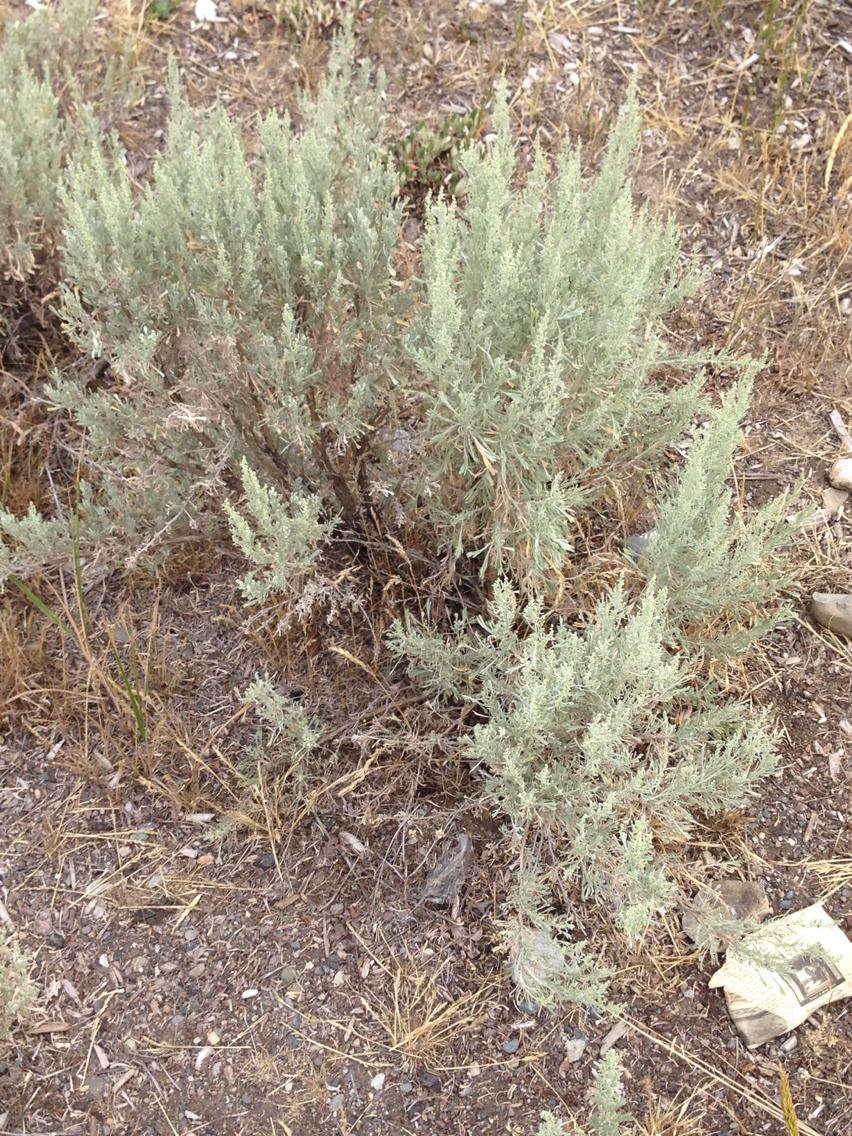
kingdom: Plantae
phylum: Tracheophyta
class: Magnoliopsida
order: Asterales
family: Asteraceae
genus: Artemisia
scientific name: Artemisia tridentata
